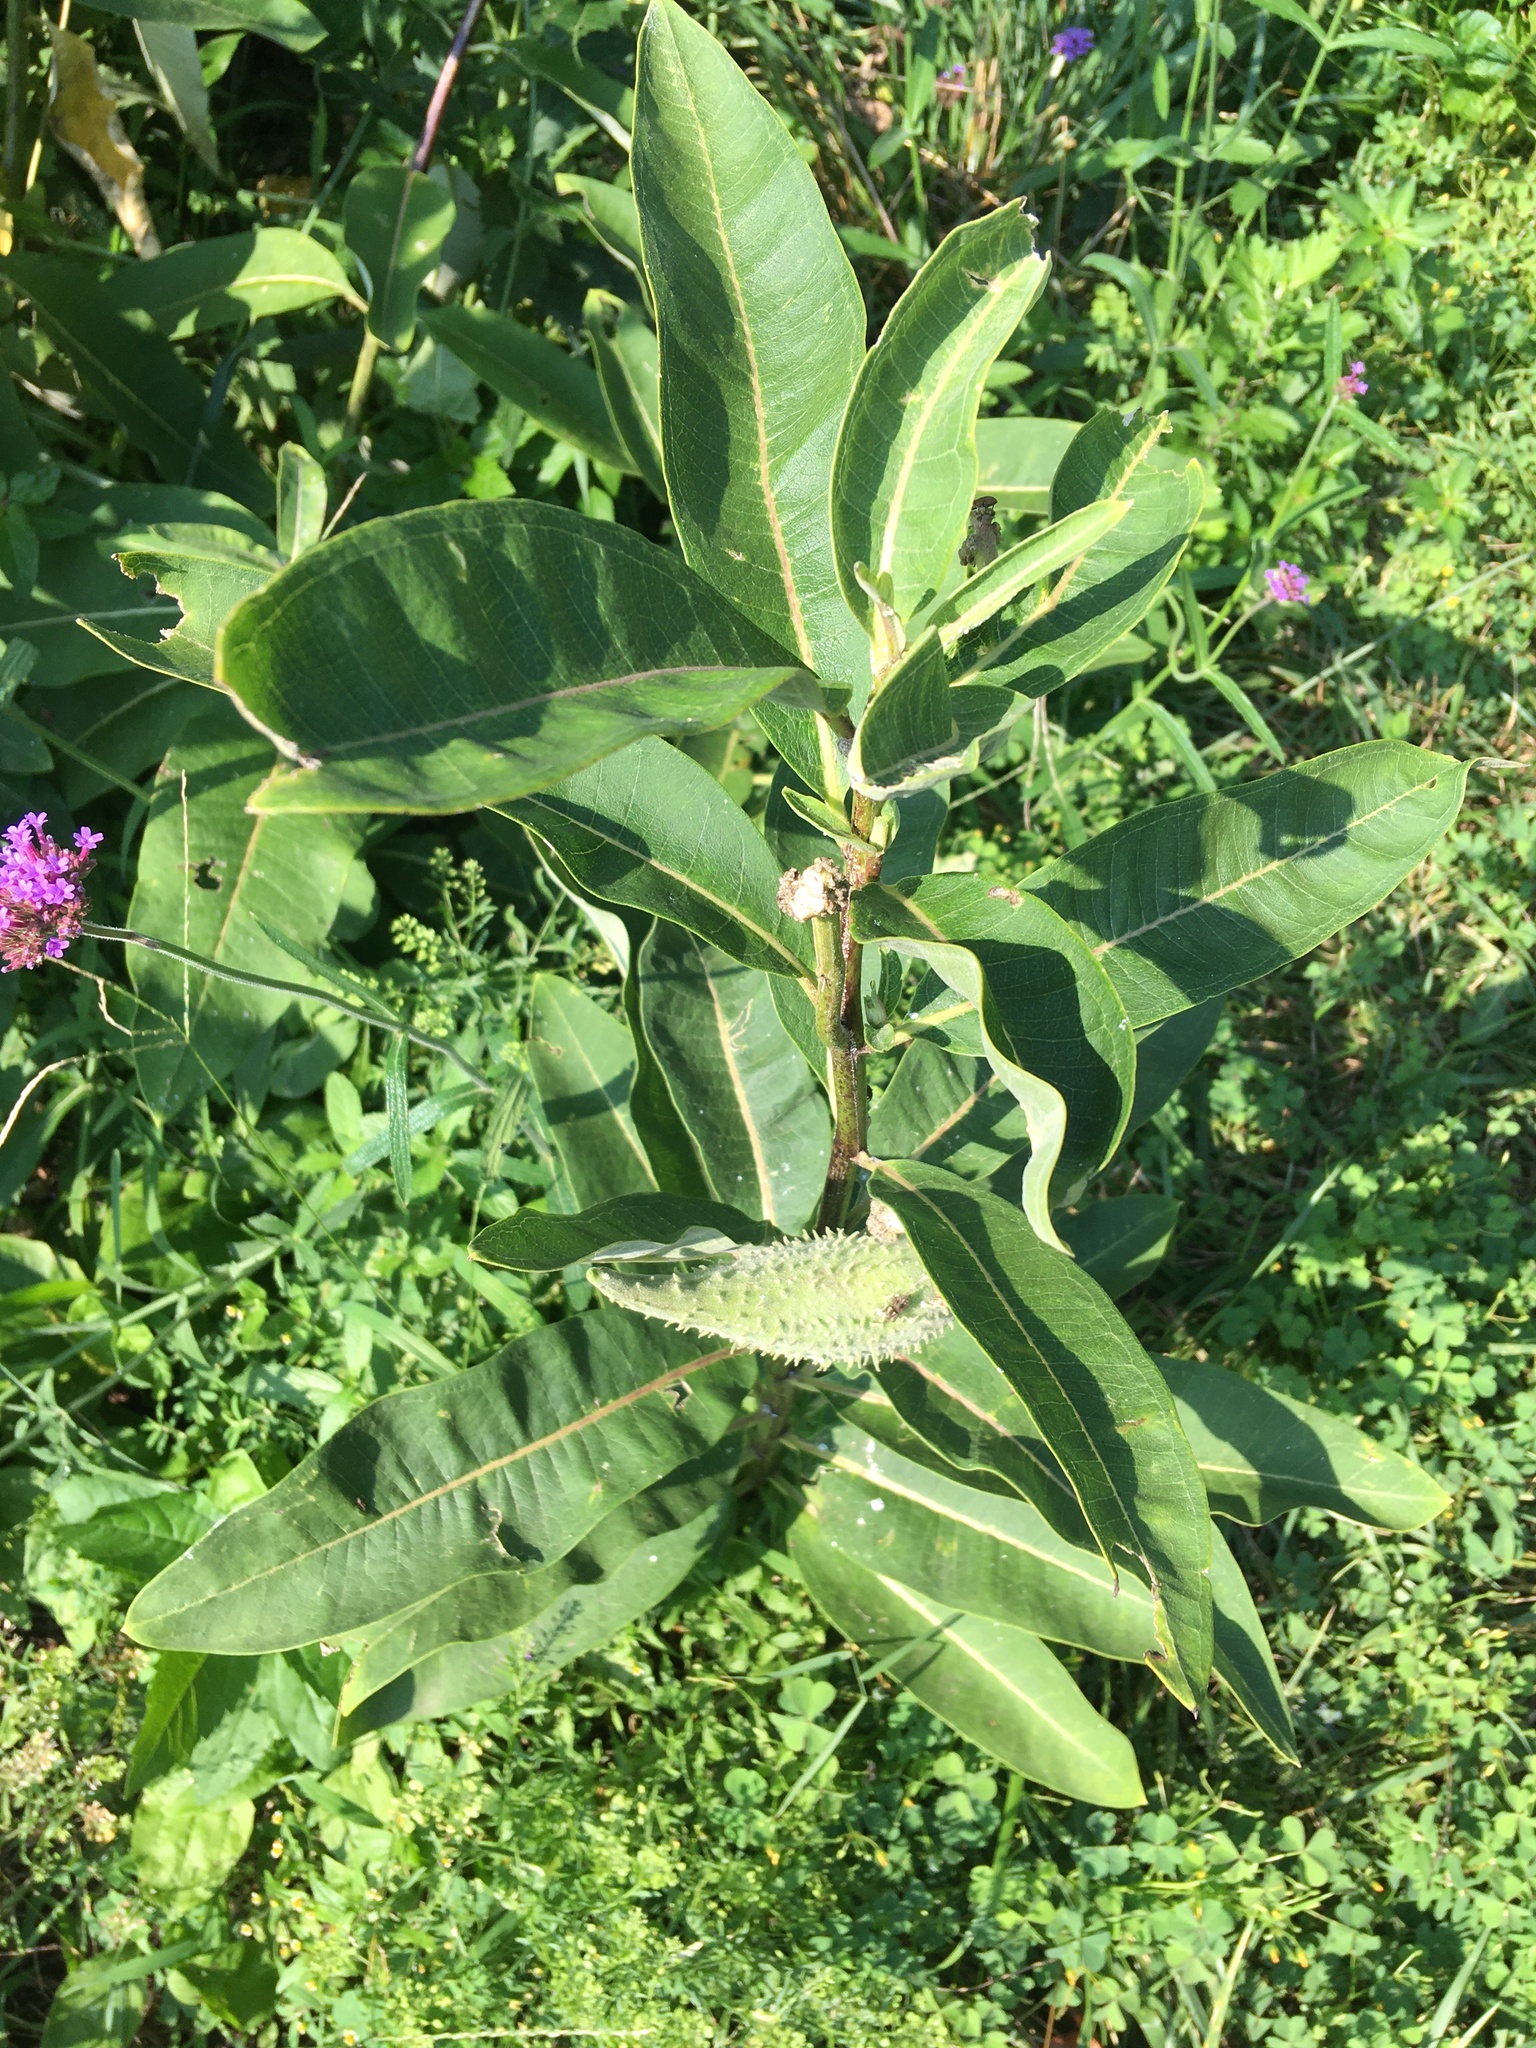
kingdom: Plantae
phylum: Tracheophyta
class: Magnoliopsida
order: Gentianales
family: Apocynaceae
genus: Asclepias
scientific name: Asclepias syriaca
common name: Common milkweed
